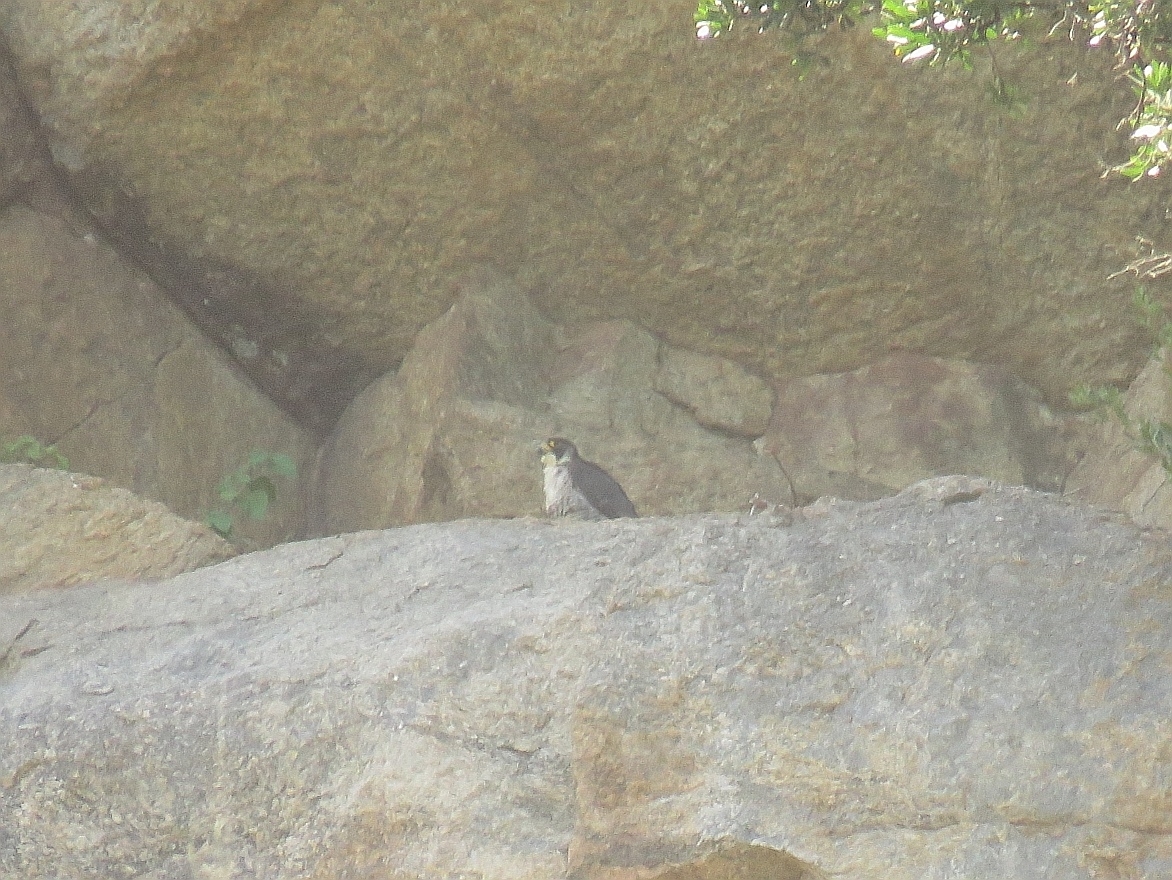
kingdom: Animalia
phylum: Chordata
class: Aves
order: Falconiformes
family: Falconidae
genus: Falco
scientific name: Falco peregrinus
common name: Peregrine falcon
